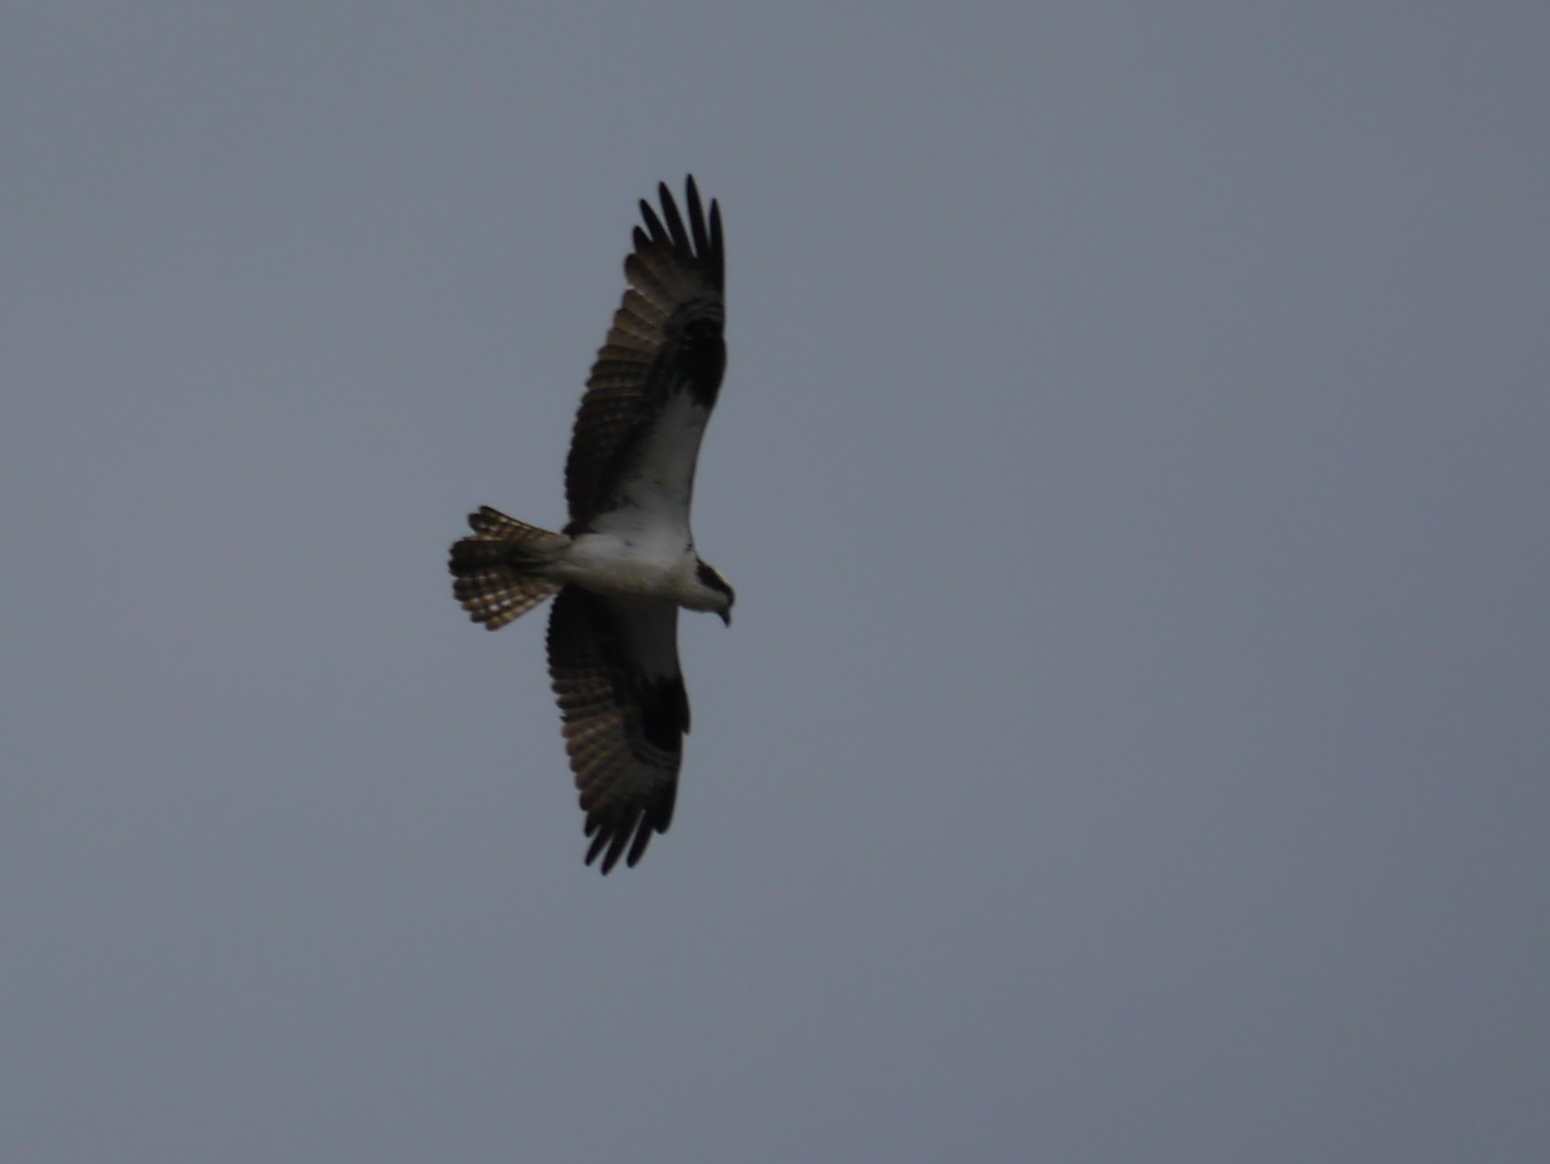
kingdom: Animalia
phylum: Chordata
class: Aves
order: Accipitriformes
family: Pandionidae
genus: Pandion
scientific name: Pandion haliaetus
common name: Osprey
